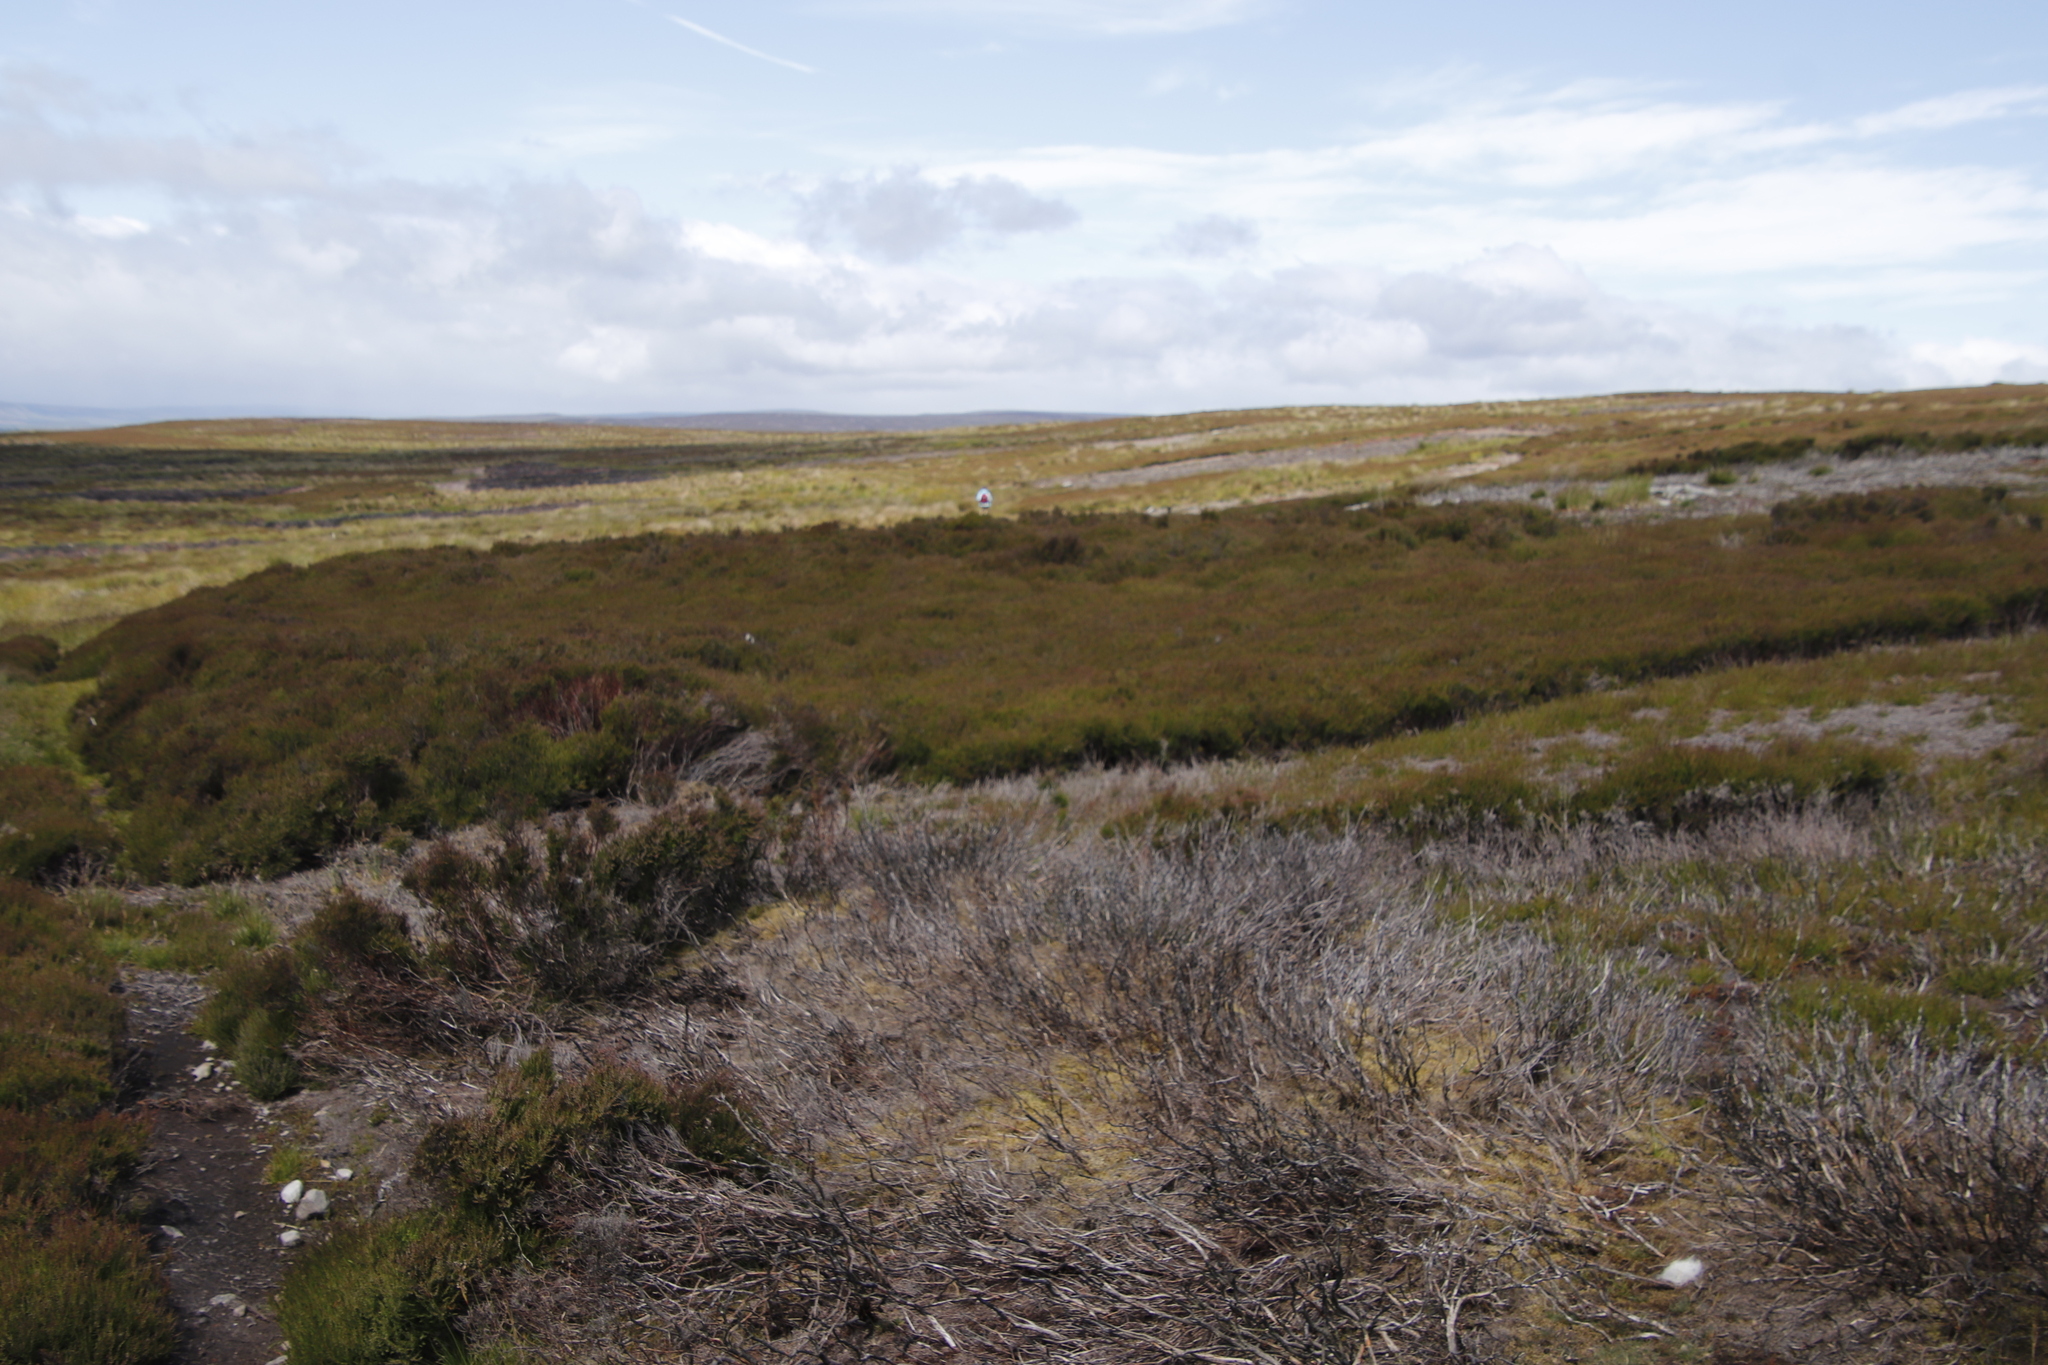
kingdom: Plantae
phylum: Tracheophyta
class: Magnoliopsida
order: Ericales
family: Ericaceae
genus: Calluna
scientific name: Calluna vulgaris
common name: Heather
